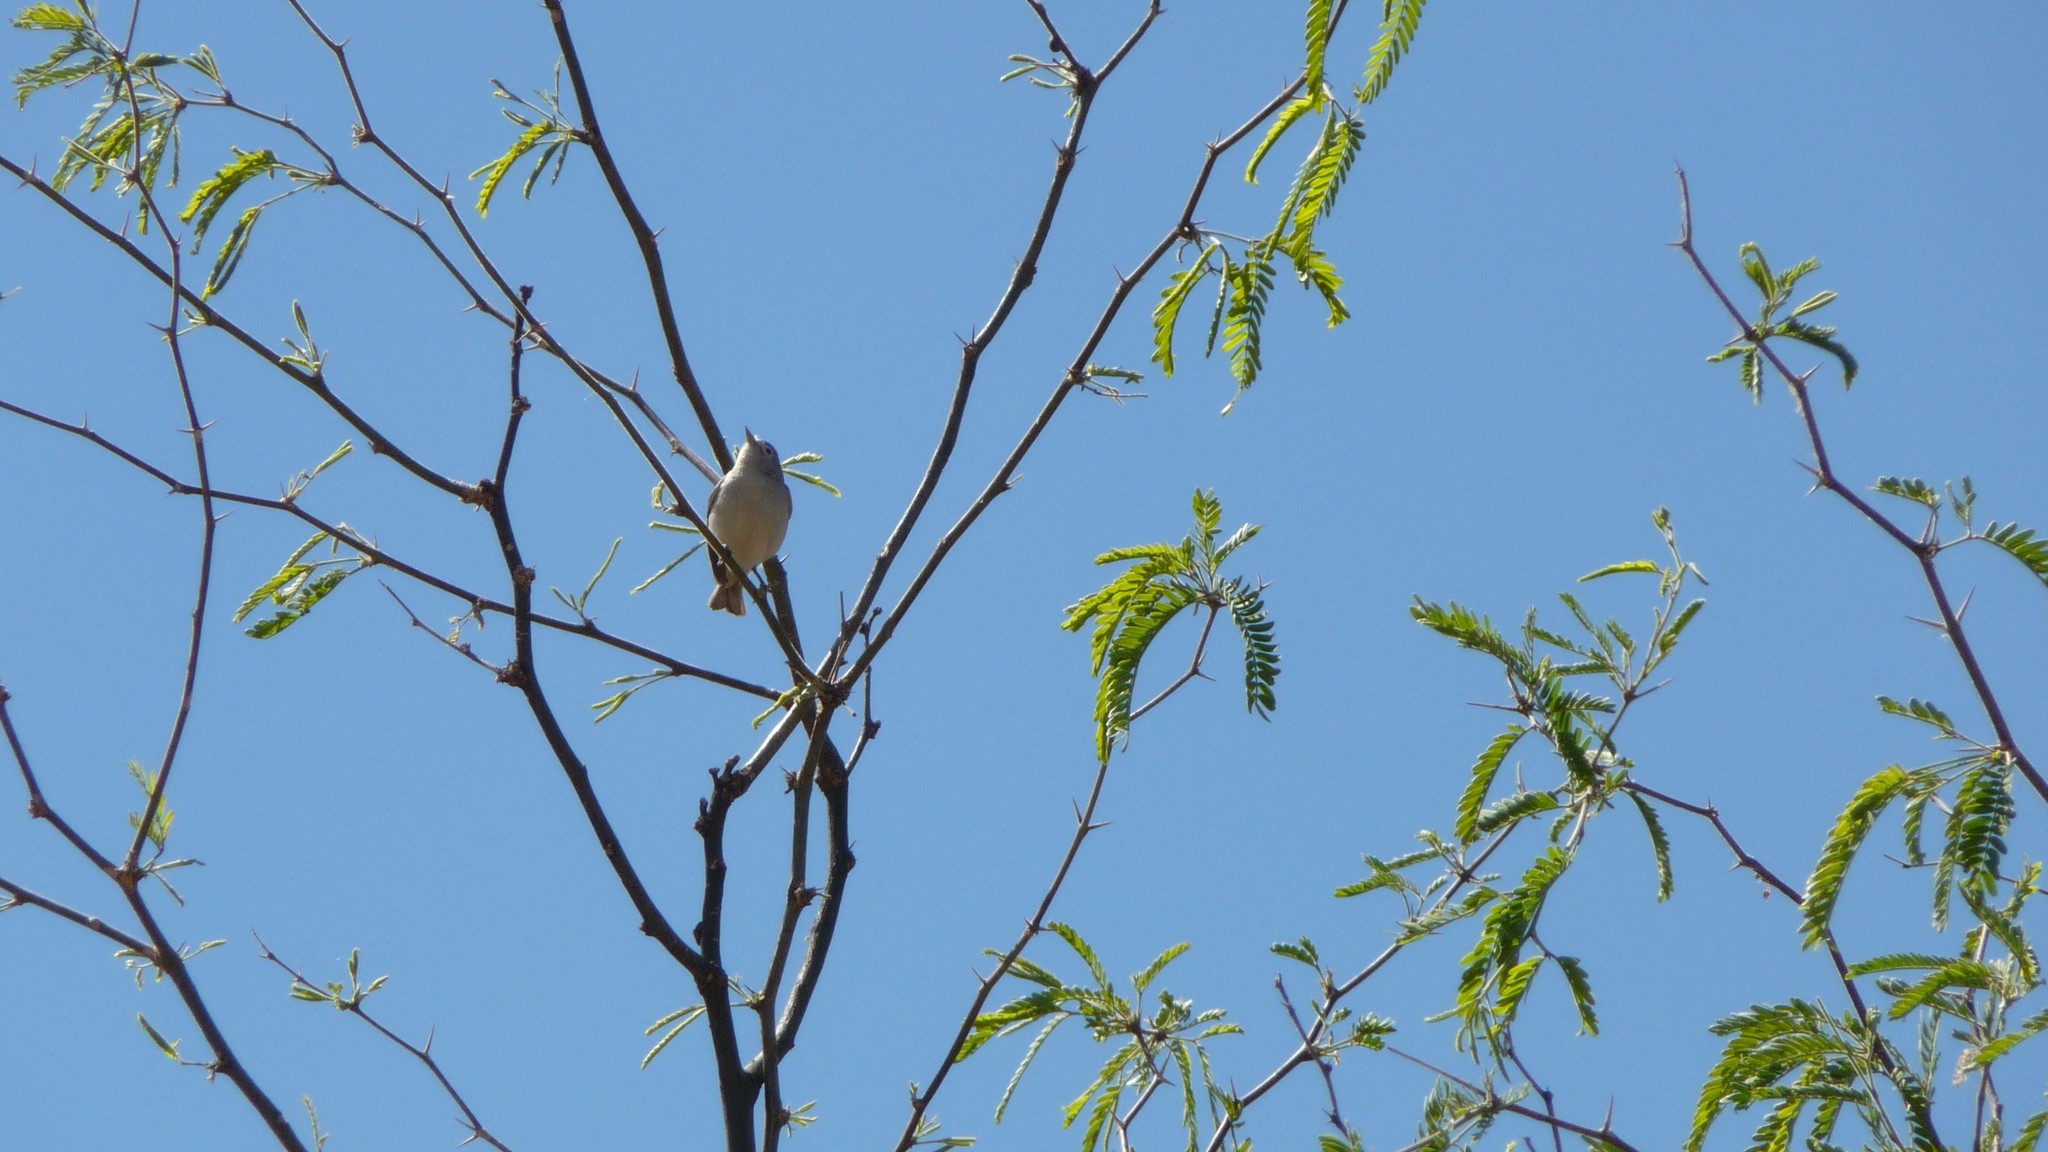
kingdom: Animalia
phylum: Chordata
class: Aves
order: Passeriformes
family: Parulidae
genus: Leiothlypis
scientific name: Leiothlypis luciae
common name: Lucy's warbler
